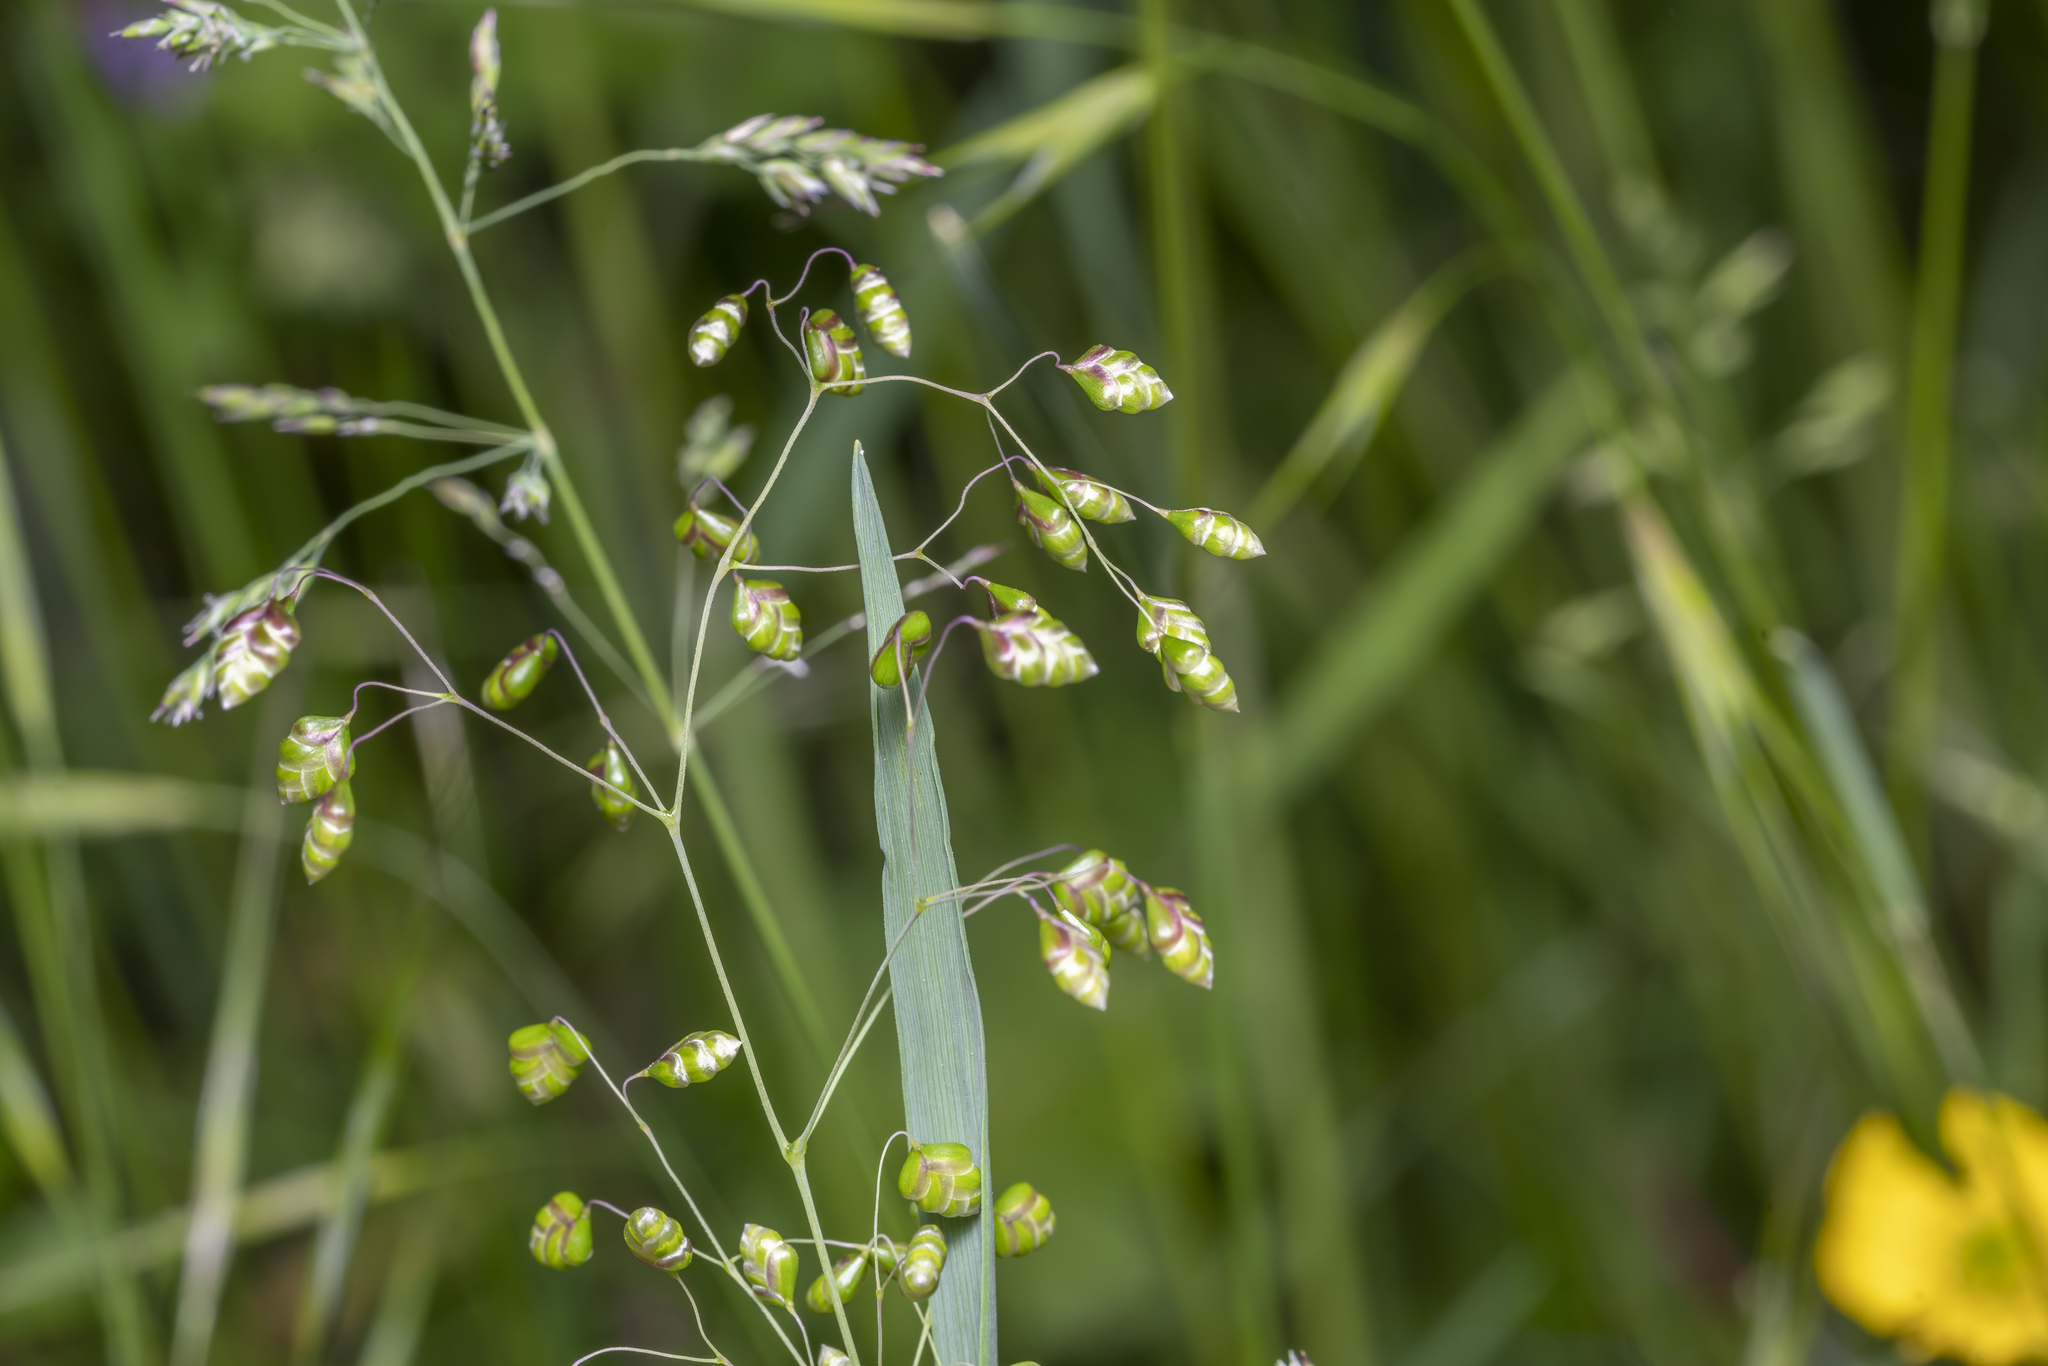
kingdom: Plantae
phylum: Tracheophyta
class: Liliopsida
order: Poales
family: Poaceae
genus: Briza
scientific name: Briza media
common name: Quaking grass
